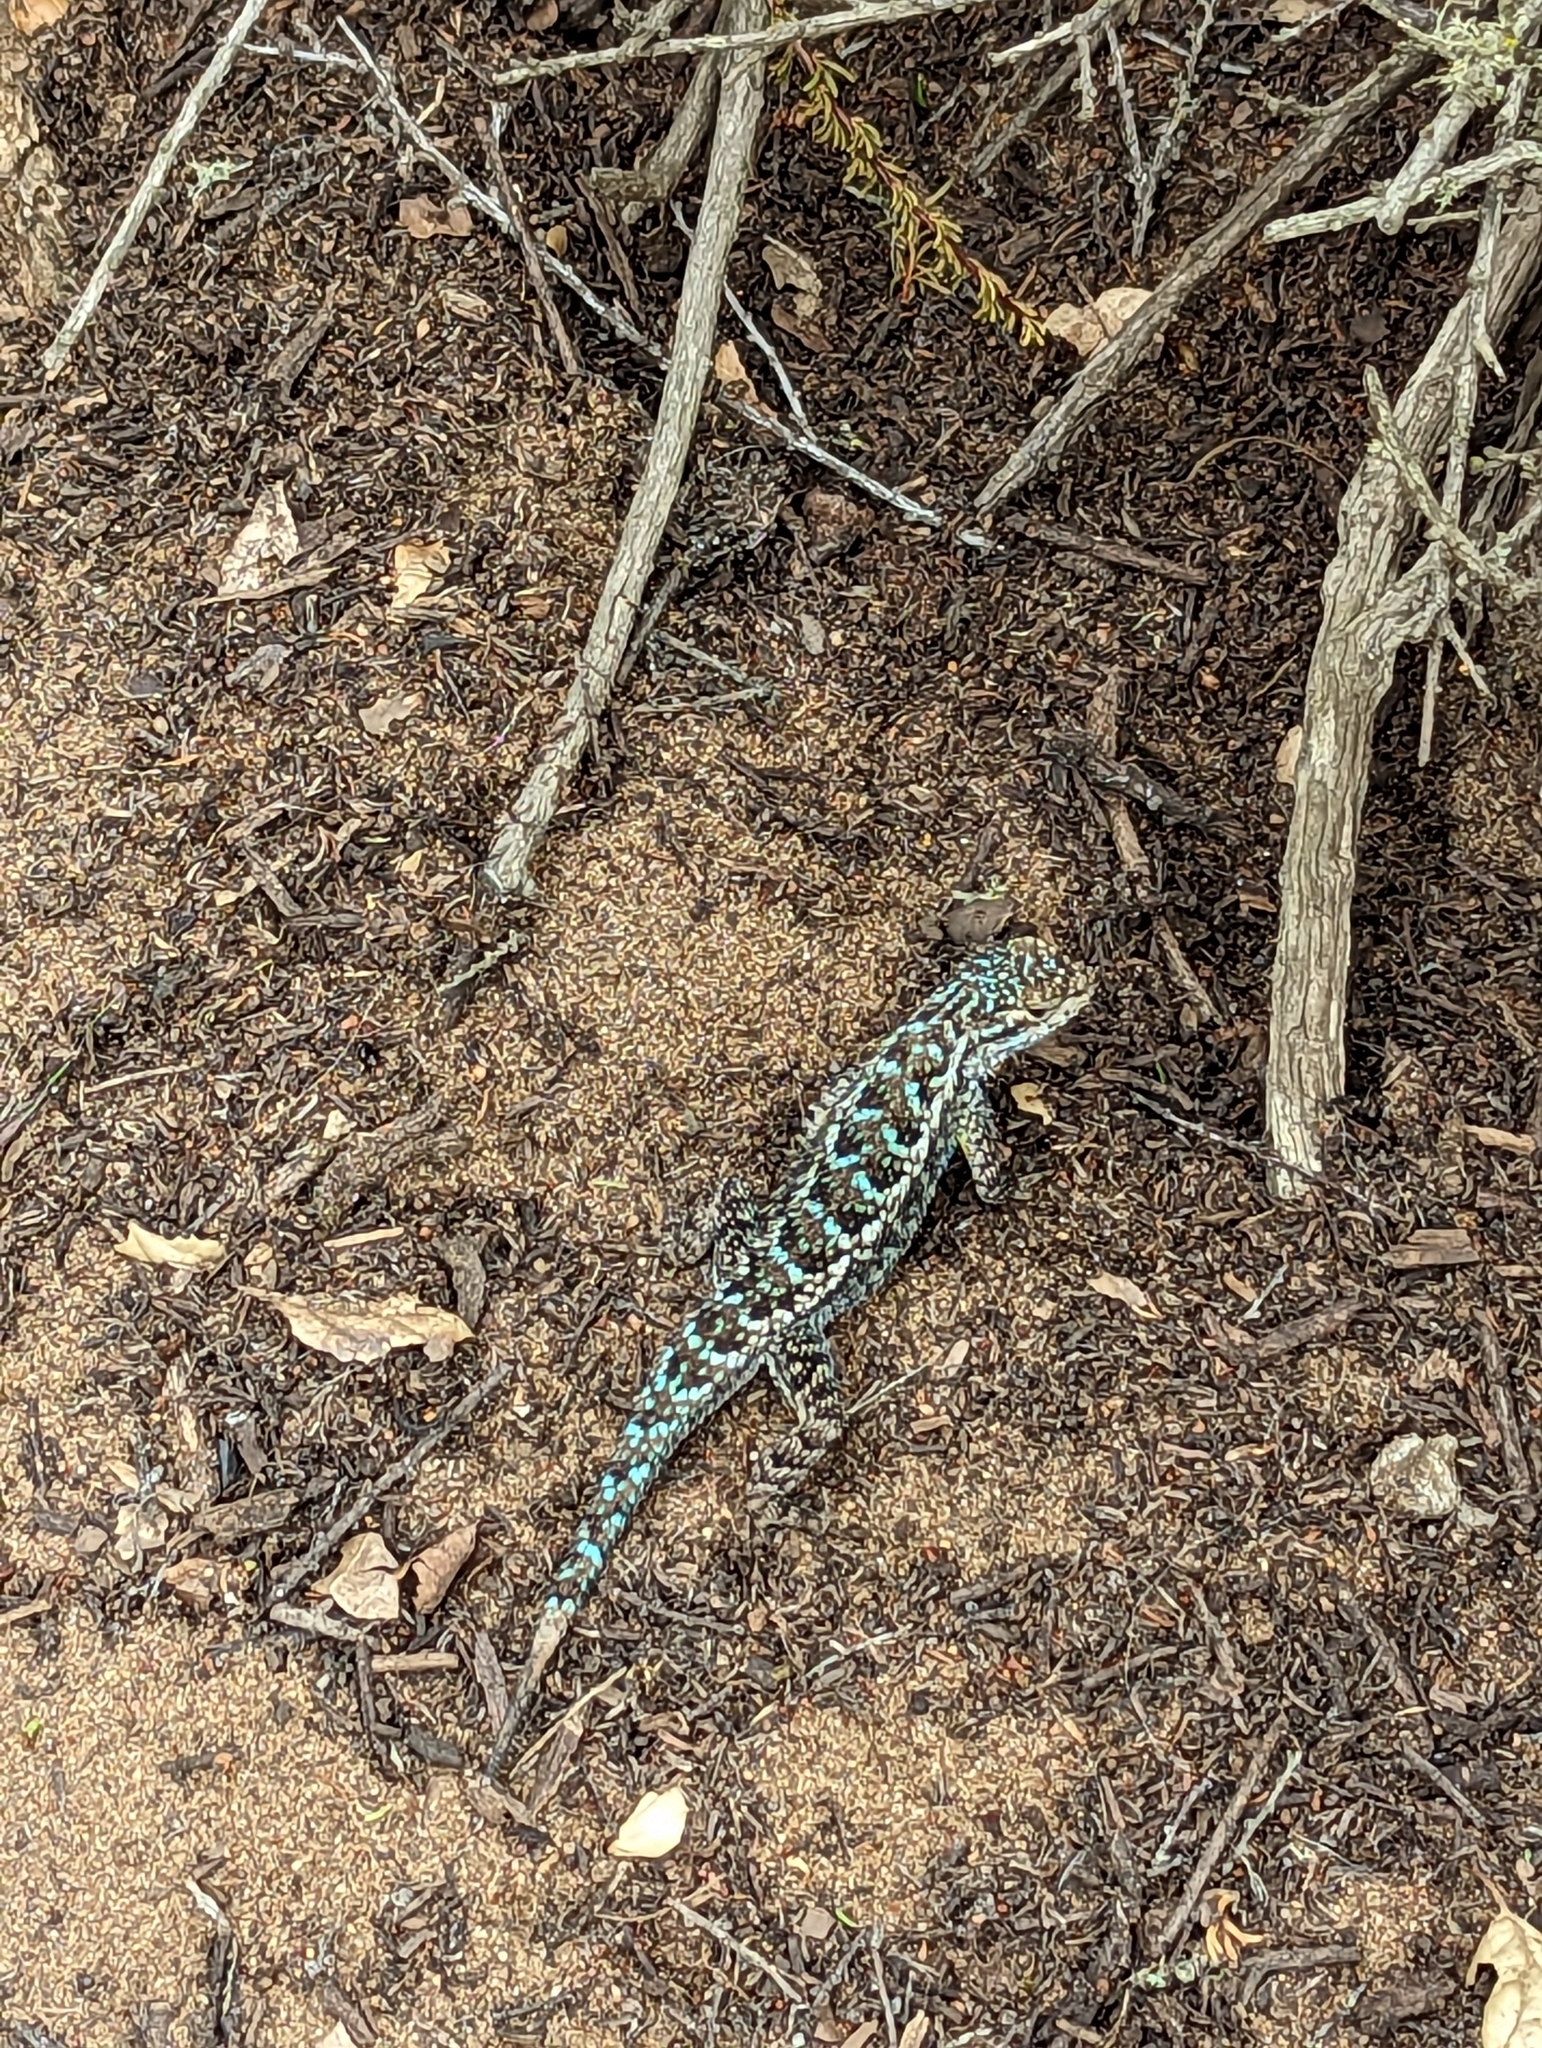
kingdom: Animalia
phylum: Chordata
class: Squamata
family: Phrynosomatidae
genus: Sceloporus
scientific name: Sceloporus occidentalis
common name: Western fence lizard
